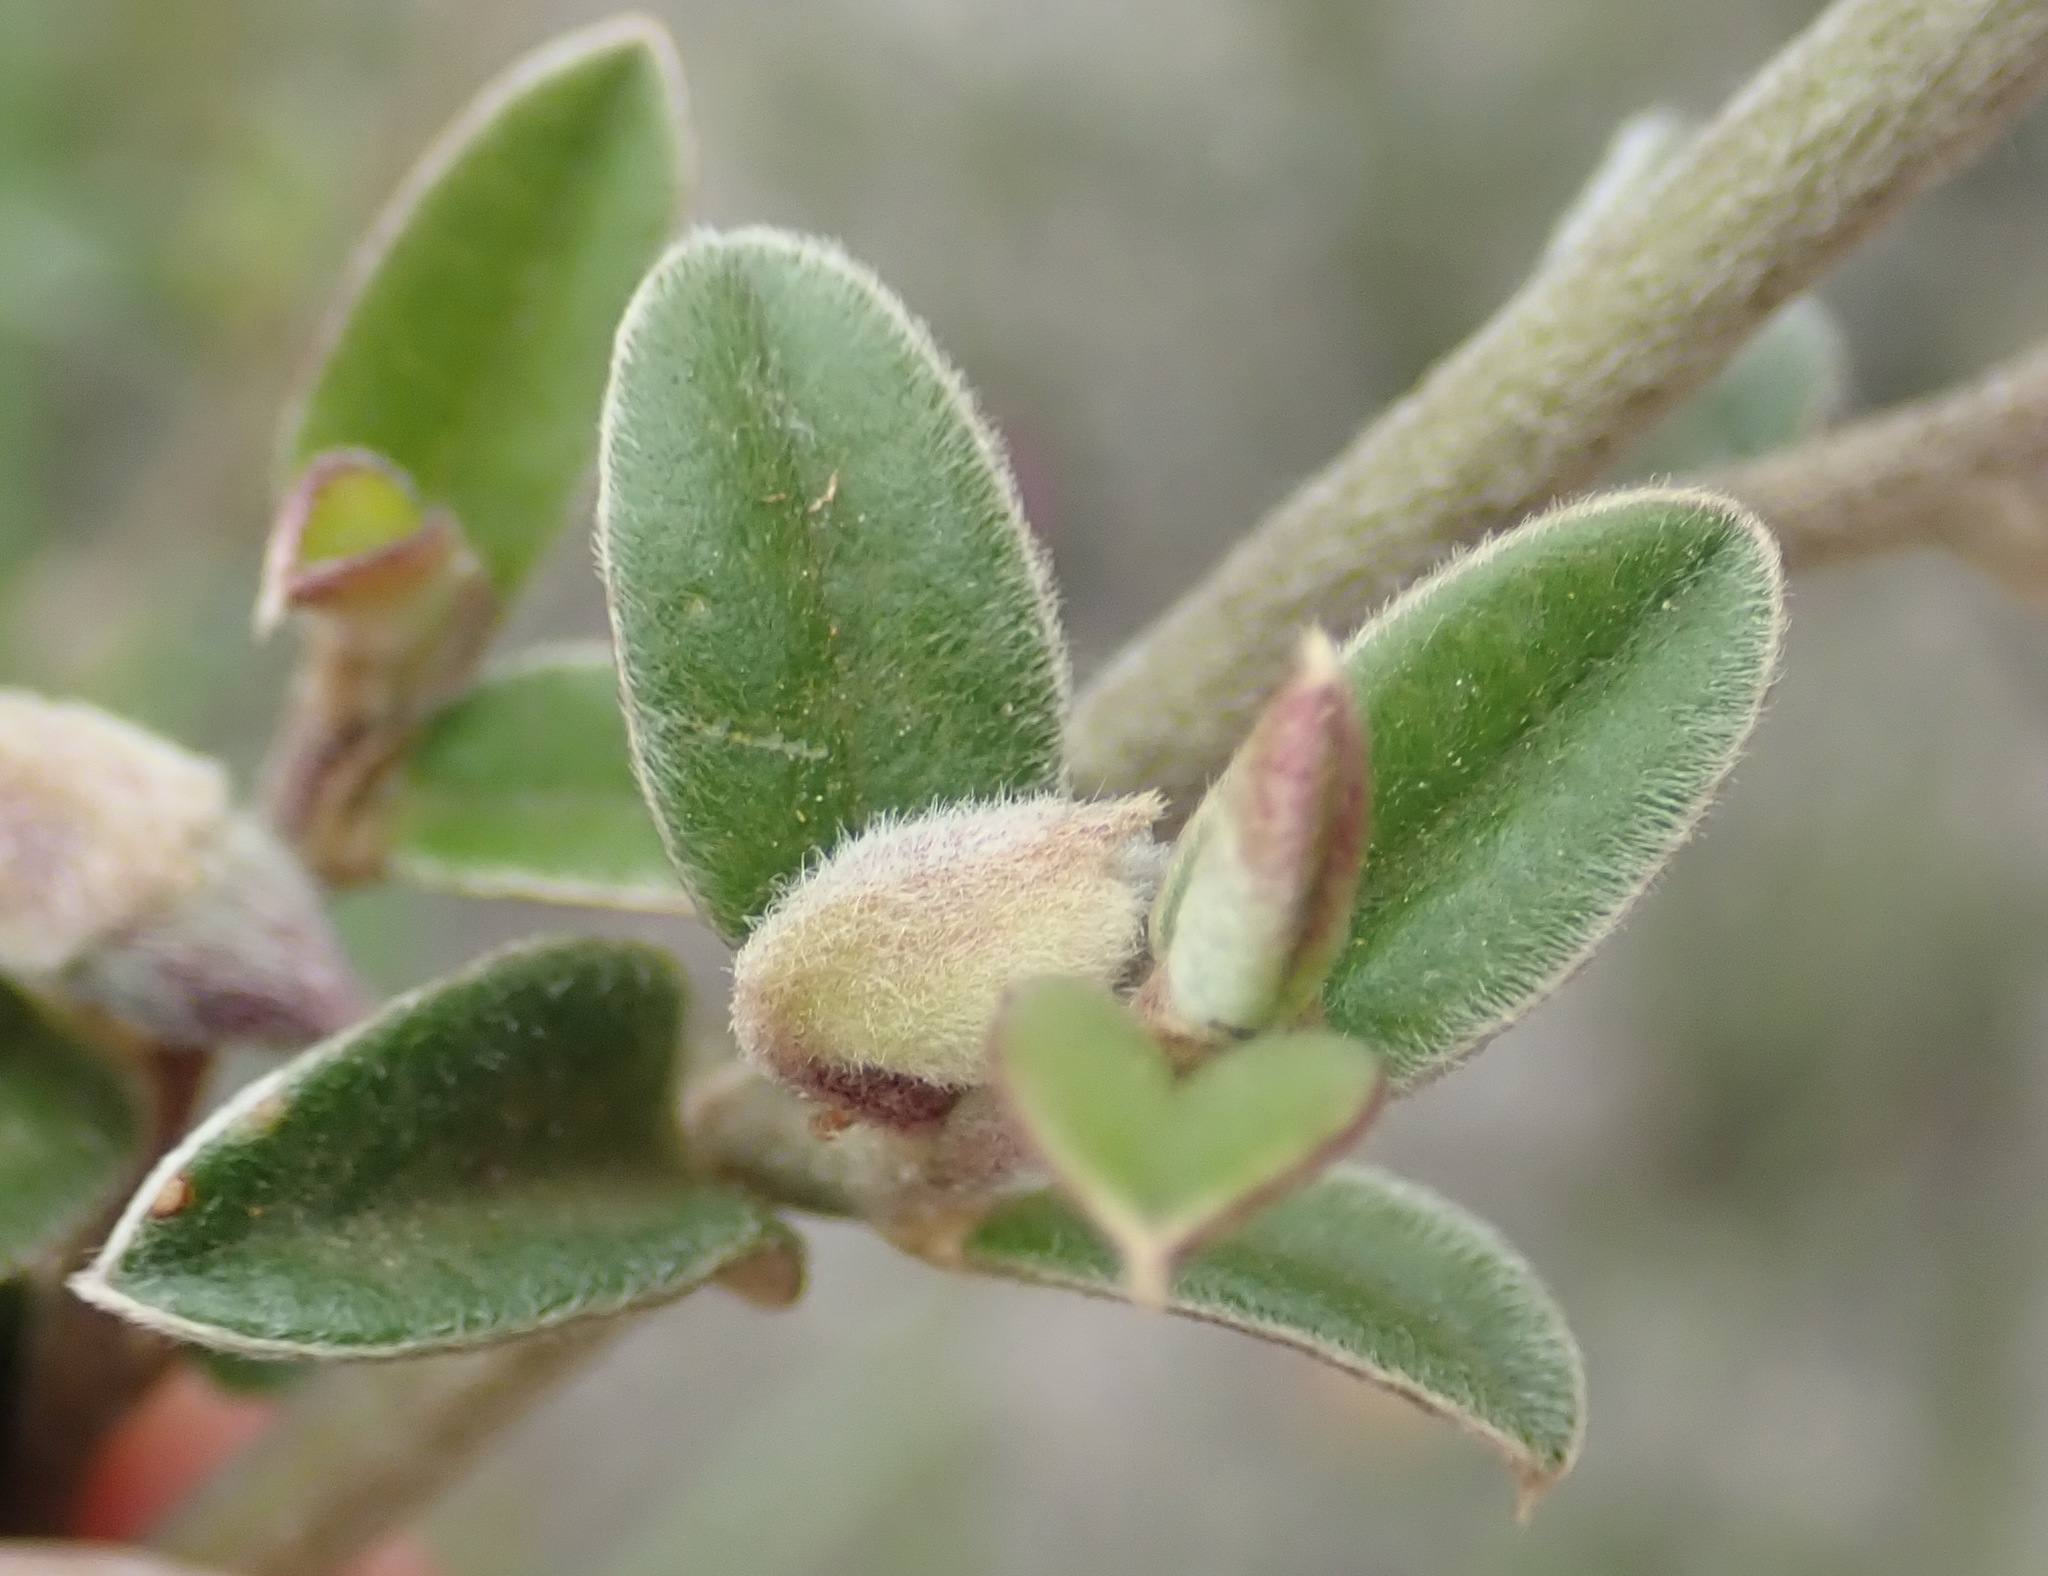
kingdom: Plantae
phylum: Tracheophyta
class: Magnoliopsida
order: Fabales
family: Fabaceae
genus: Podalyria
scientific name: Podalyria burchellii
